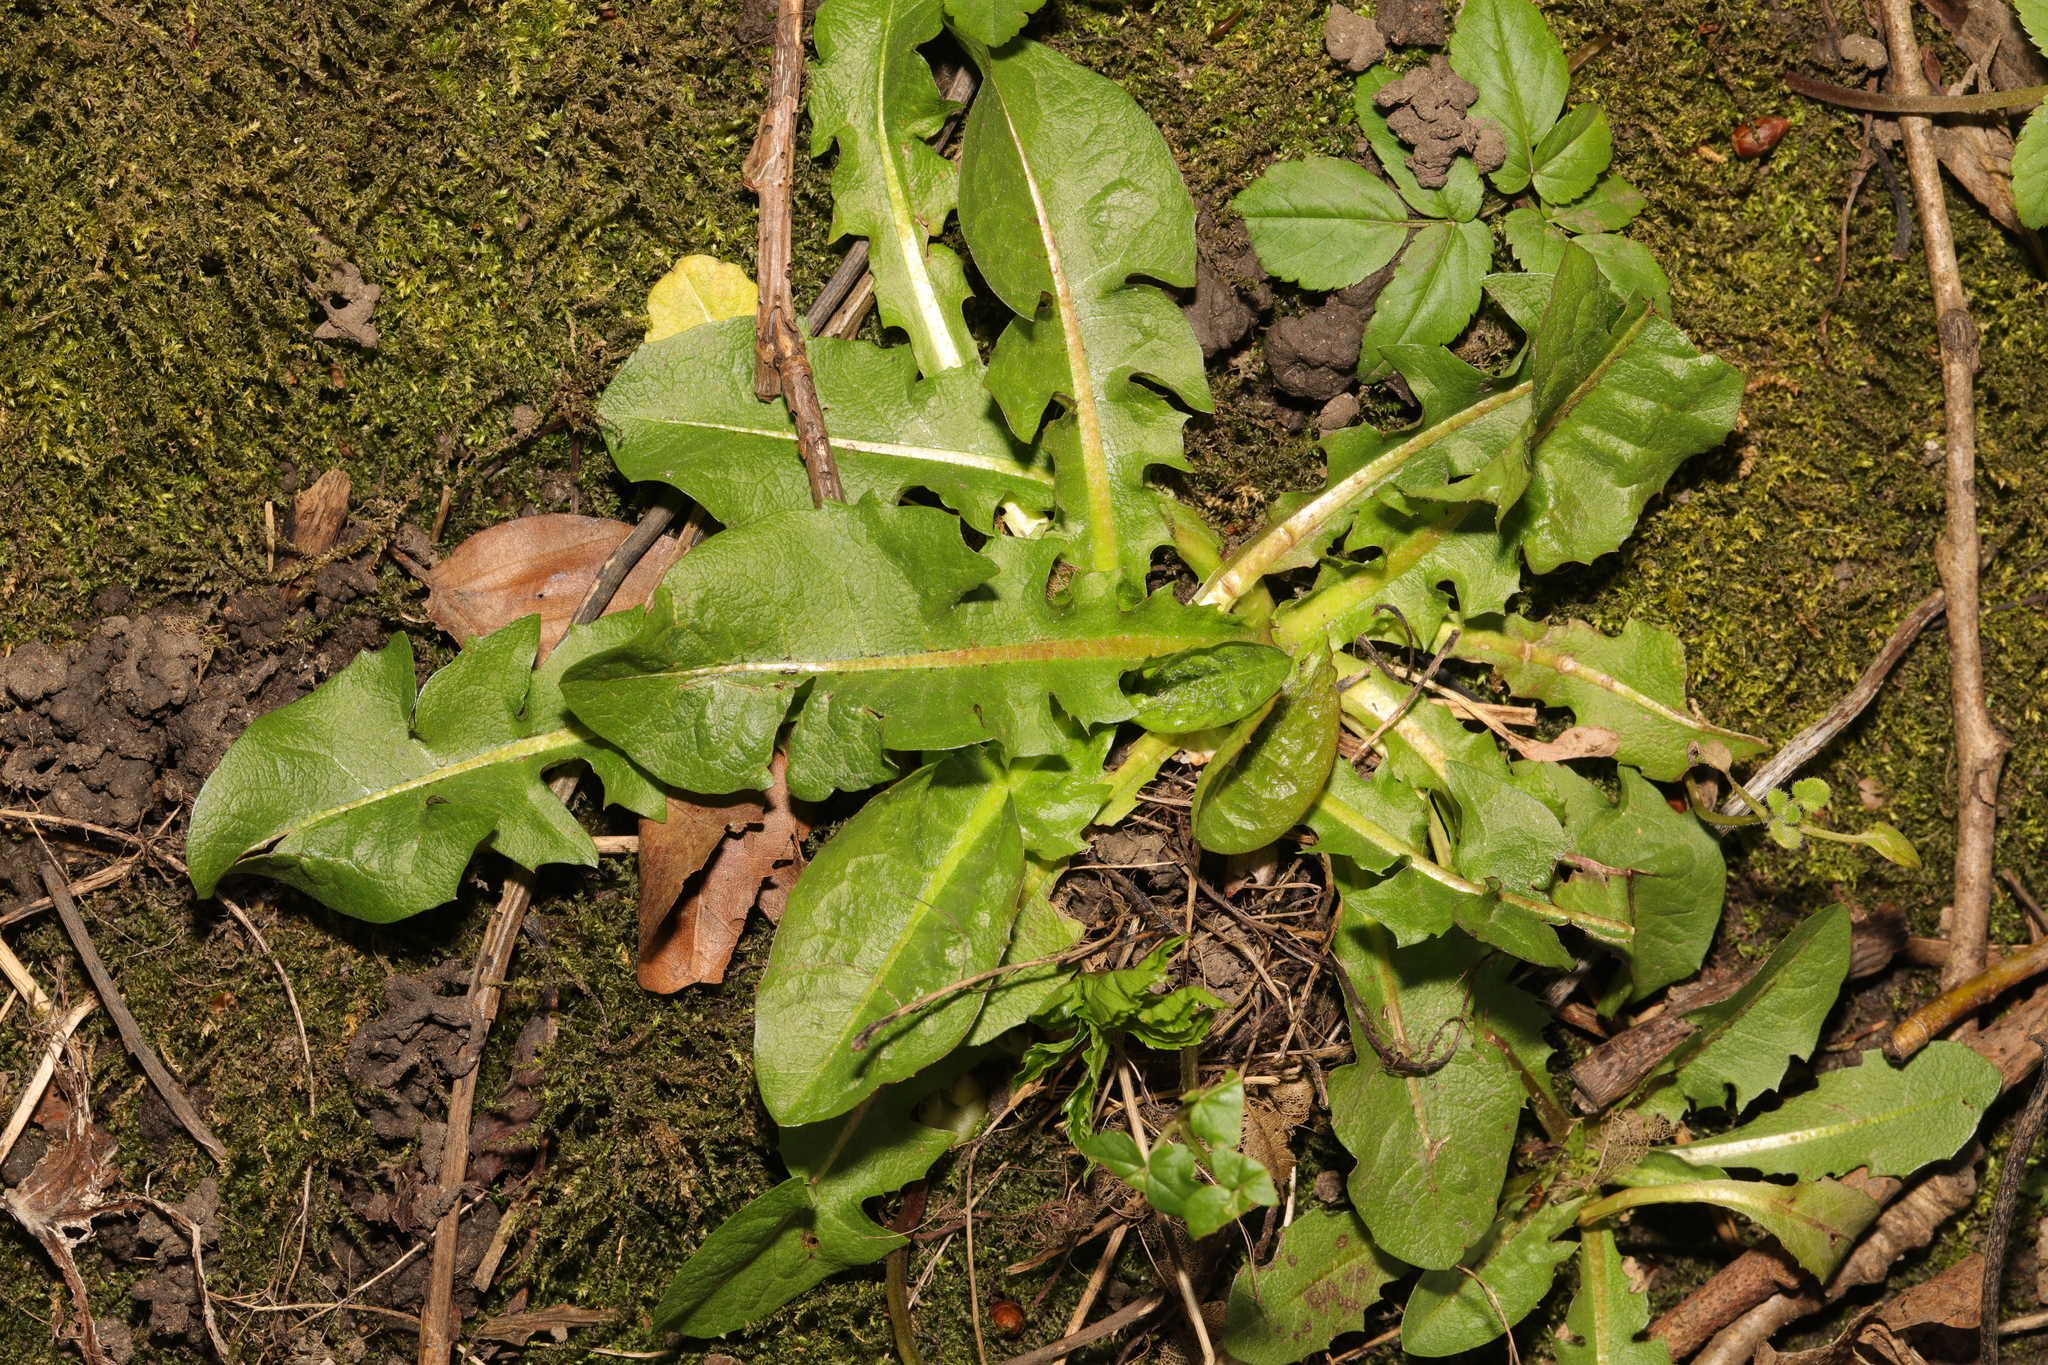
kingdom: Plantae
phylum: Tracheophyta
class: Magnoliopsida
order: Asterales
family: Asteraceae
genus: Taraxacum
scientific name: Taraxacum officinale
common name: Common dandelion
